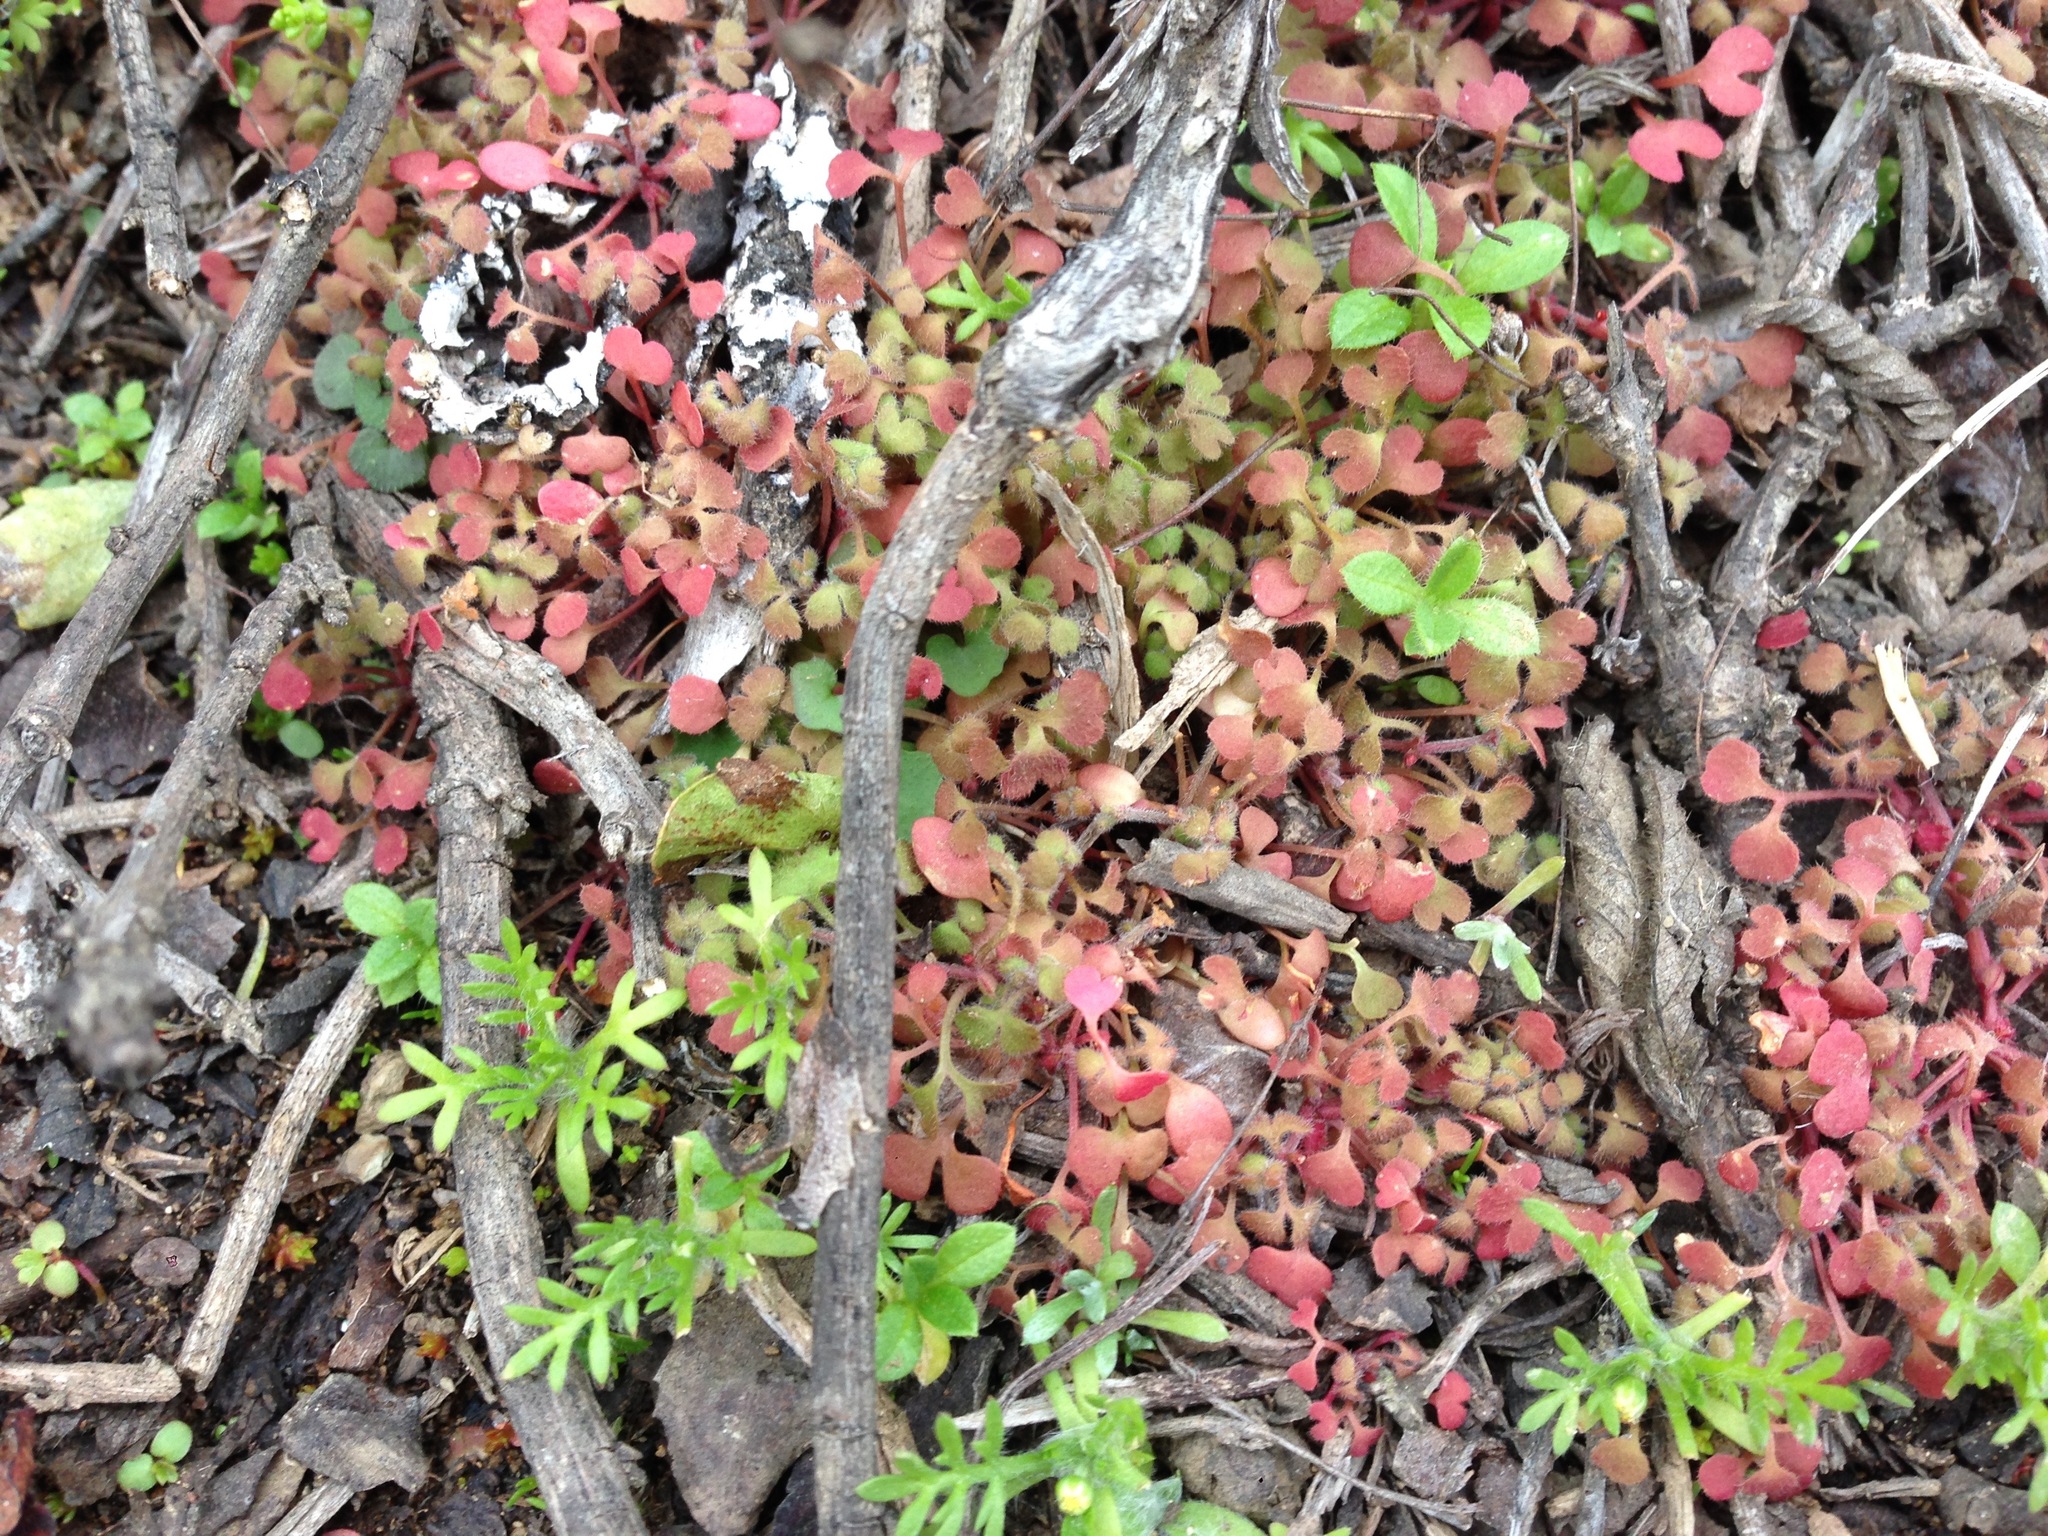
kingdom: Plantae
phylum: Tracheophyta
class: Magnoliopsida
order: Caryophyllales
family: Polygonaceae
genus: Pterostegia
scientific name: Pterostegia drymarioides
